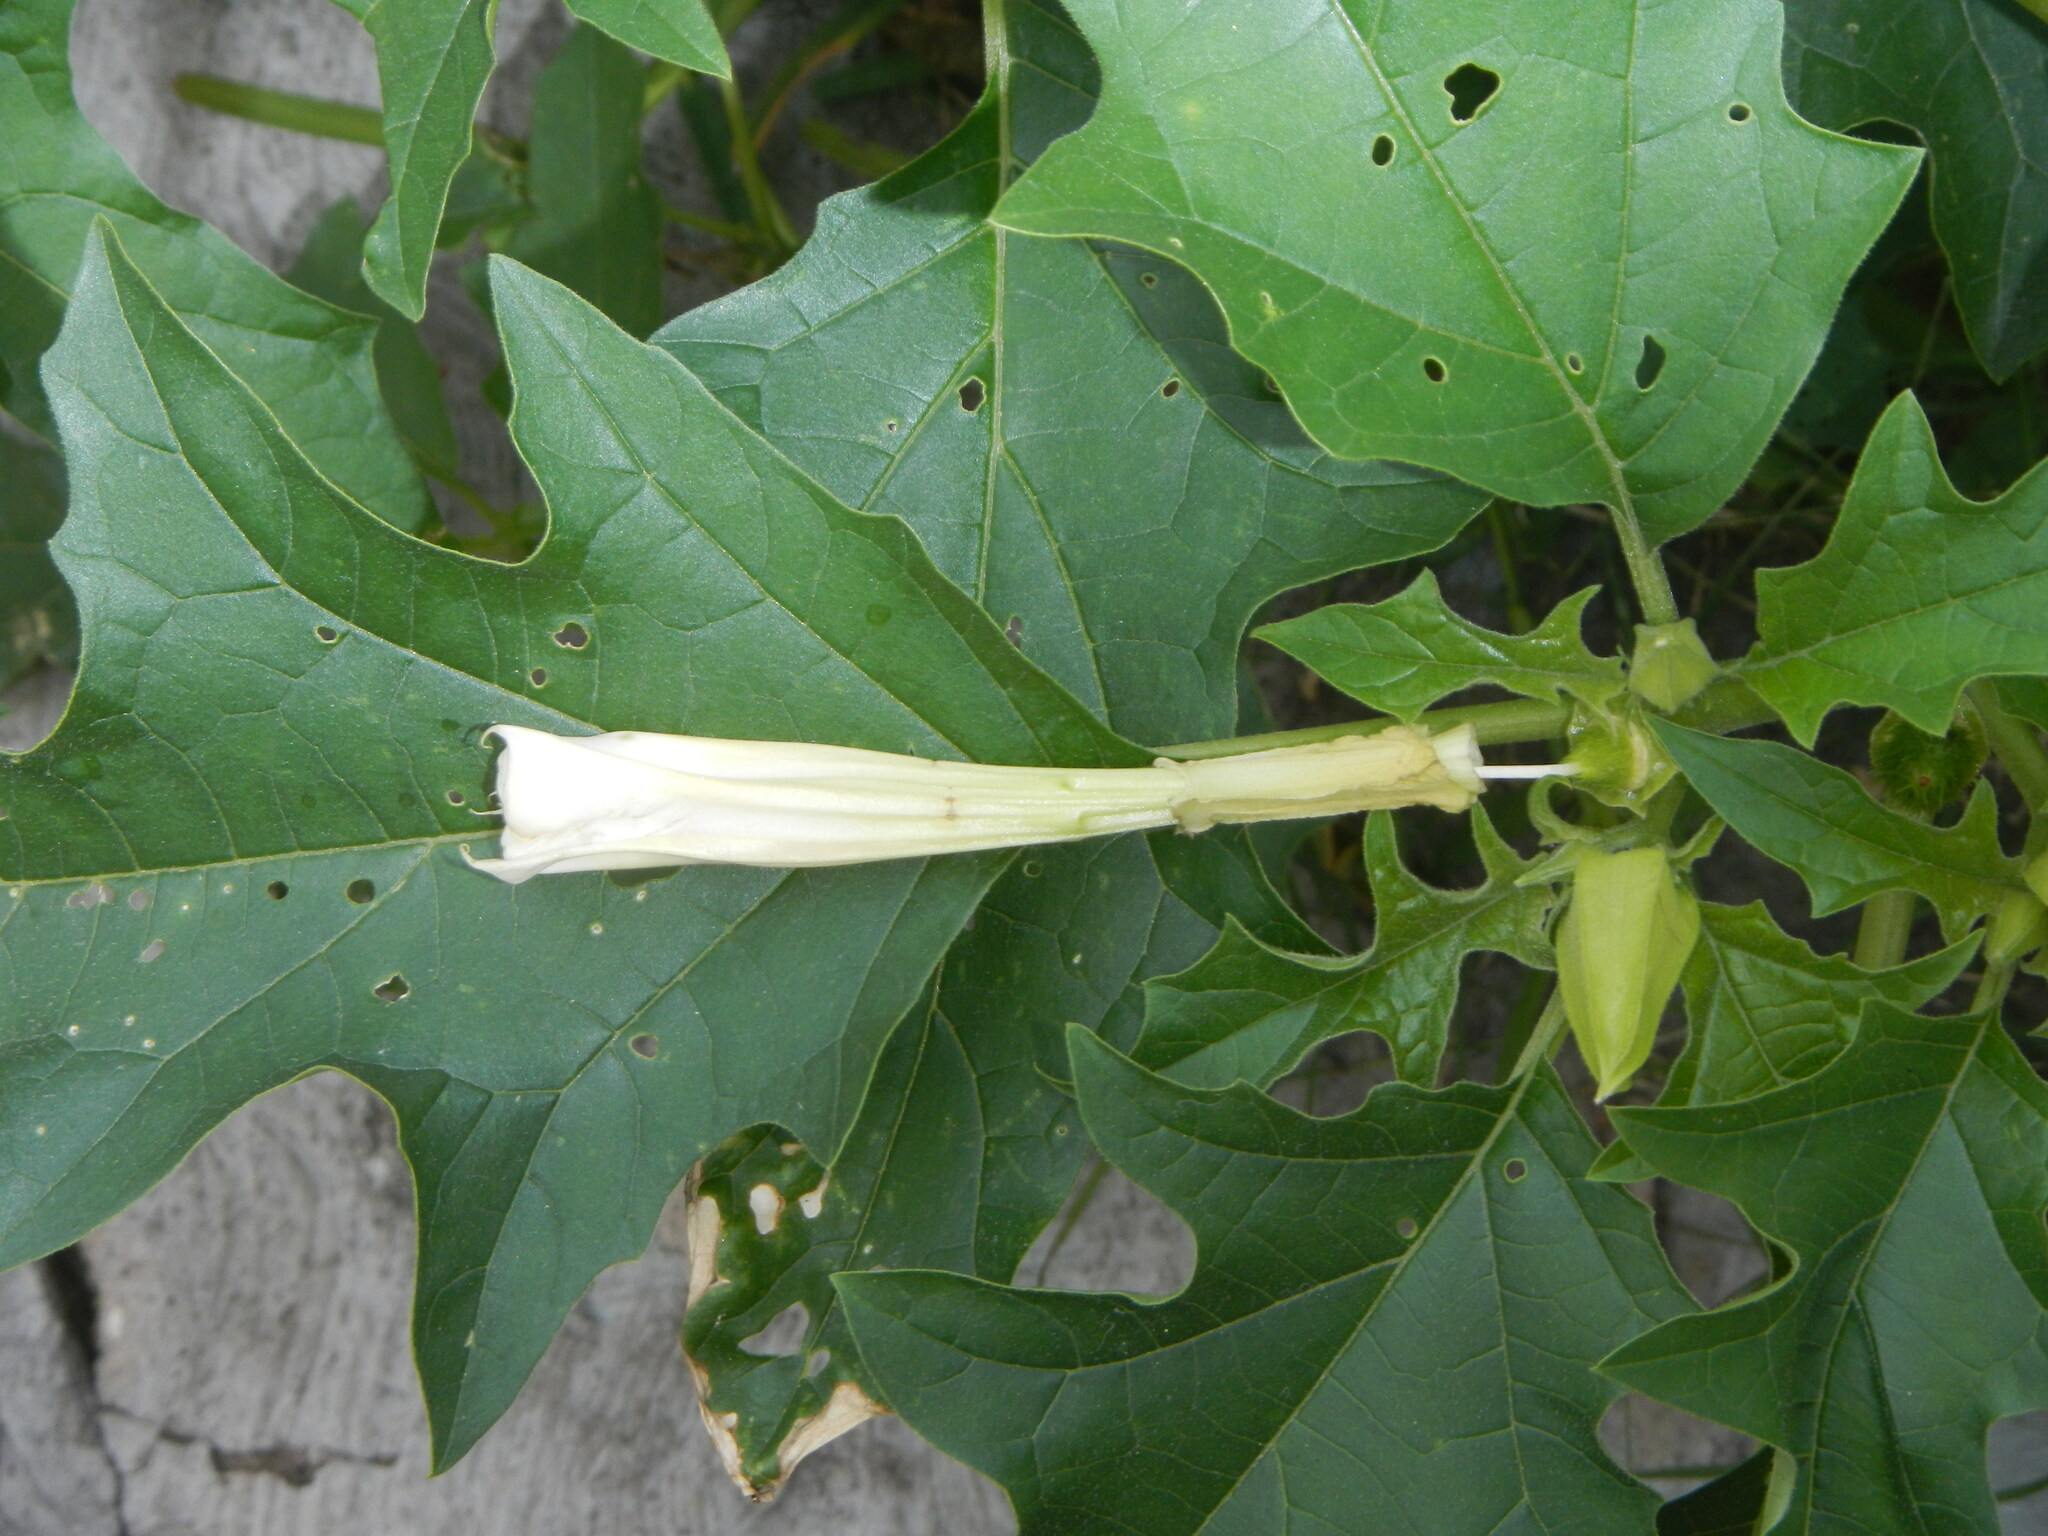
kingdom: Plantae
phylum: Tracheophyta
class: Magnoliopsida
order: Solanales
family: Solanaceae
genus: Datura
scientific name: Datura stramonium
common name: Thorn-apple
